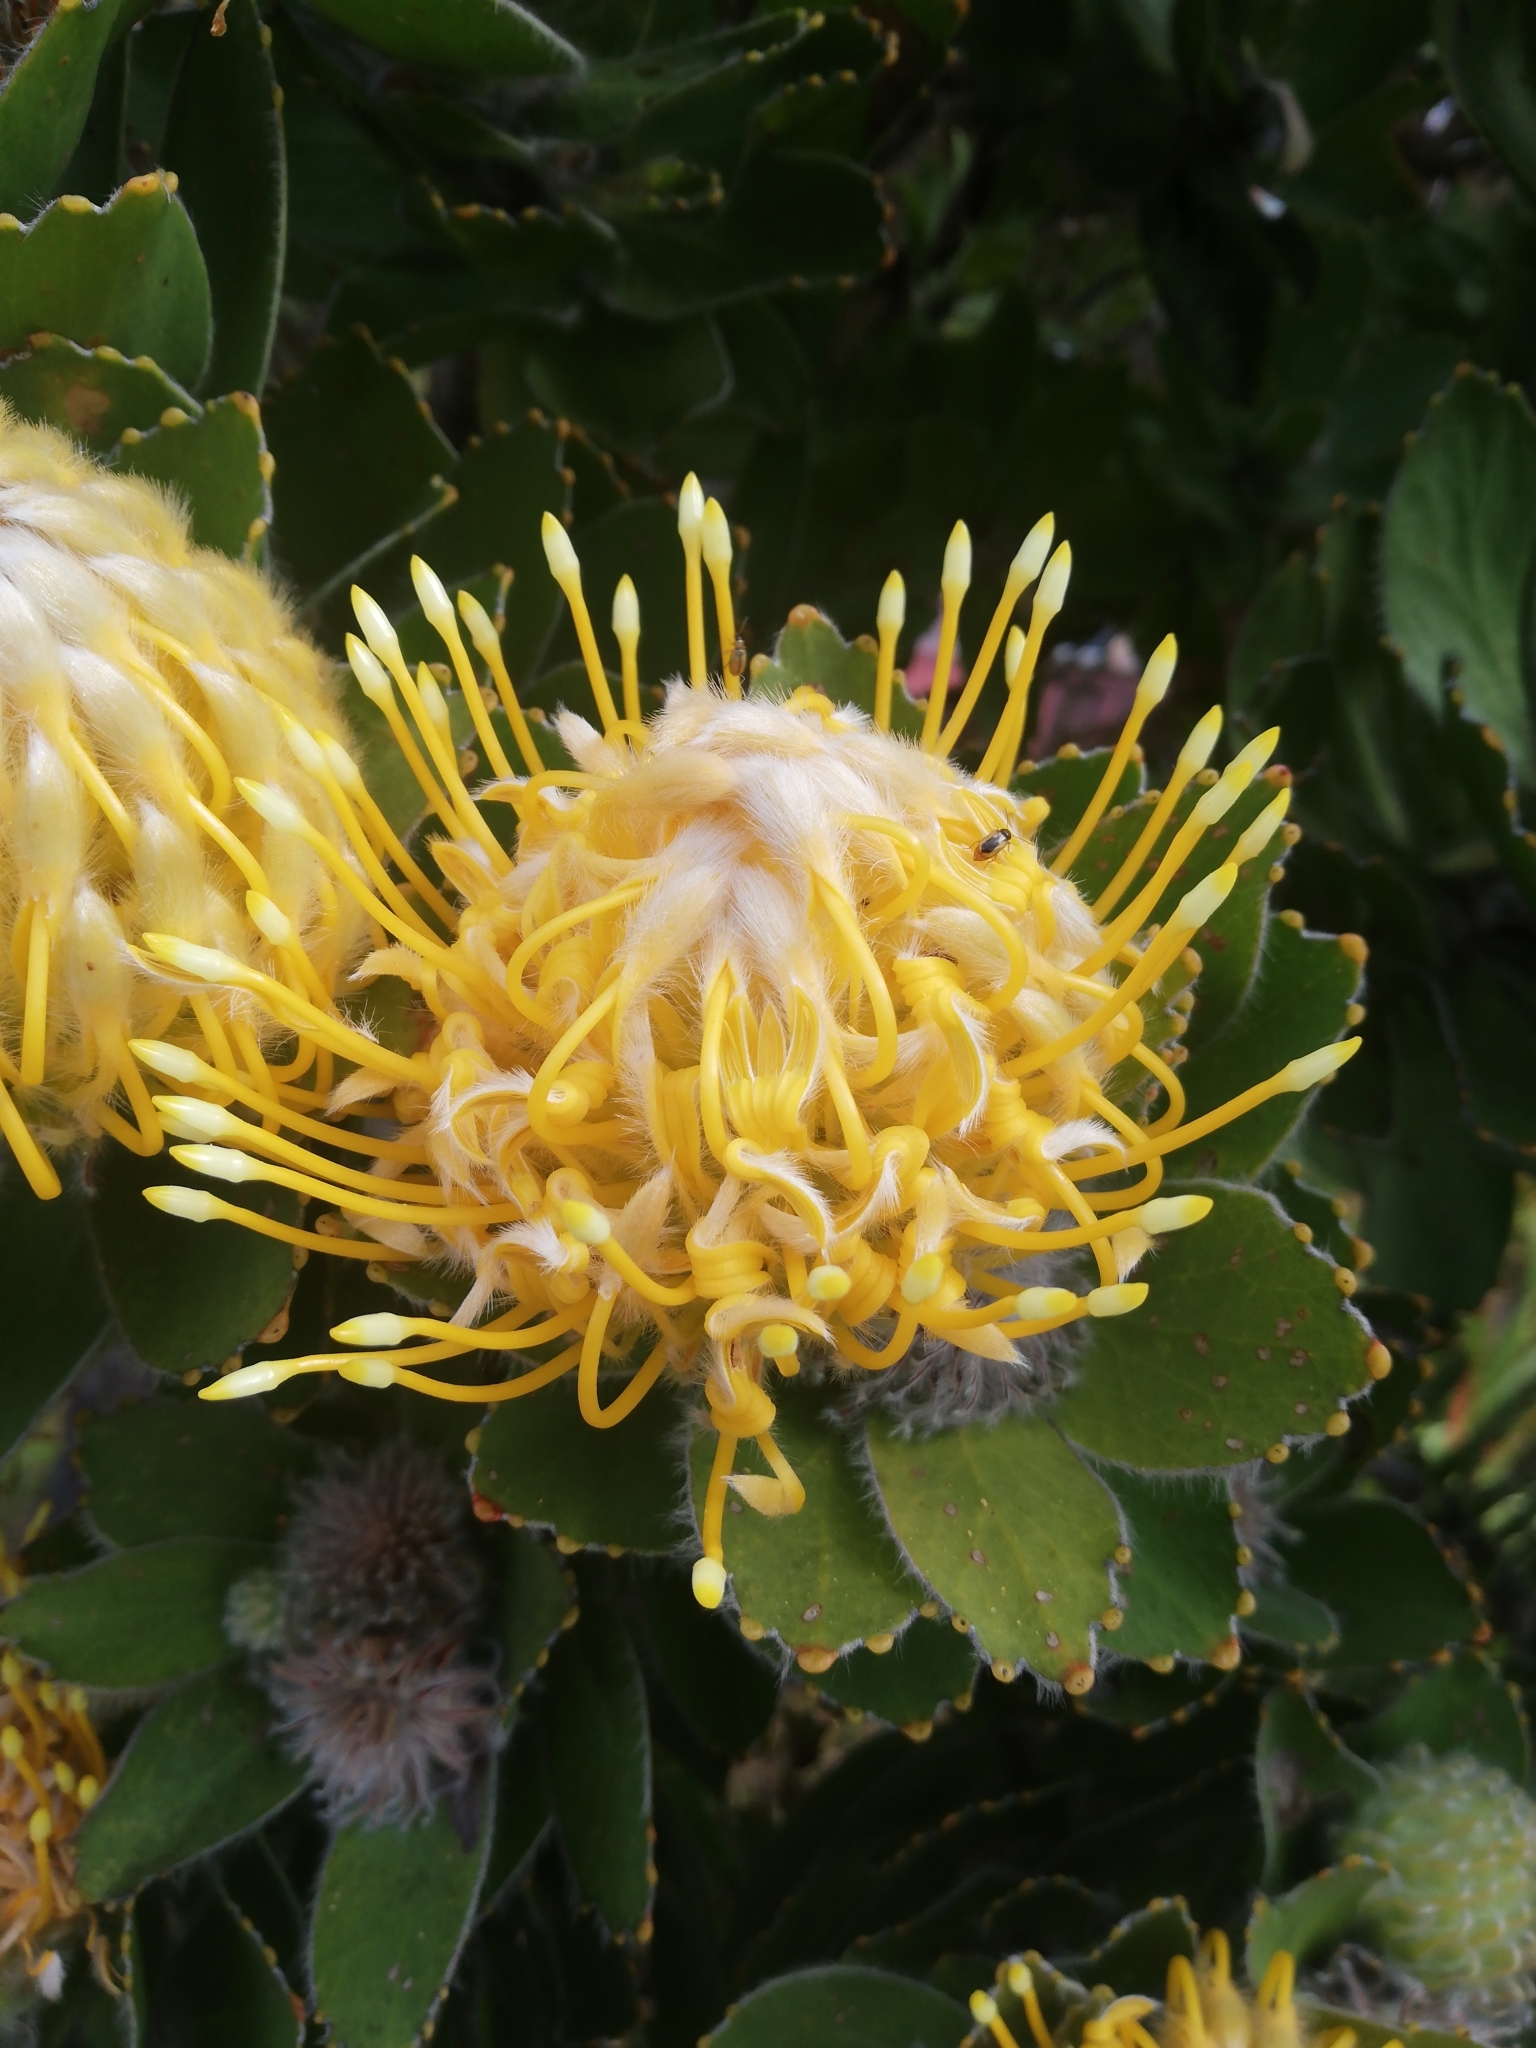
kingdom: Plantae
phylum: Tracheophyta
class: Magnoliopsida
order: Proteales
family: Proteaceae
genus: Leucospermum
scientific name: Leucospermum conocarpodendron
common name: Tree pincushion
